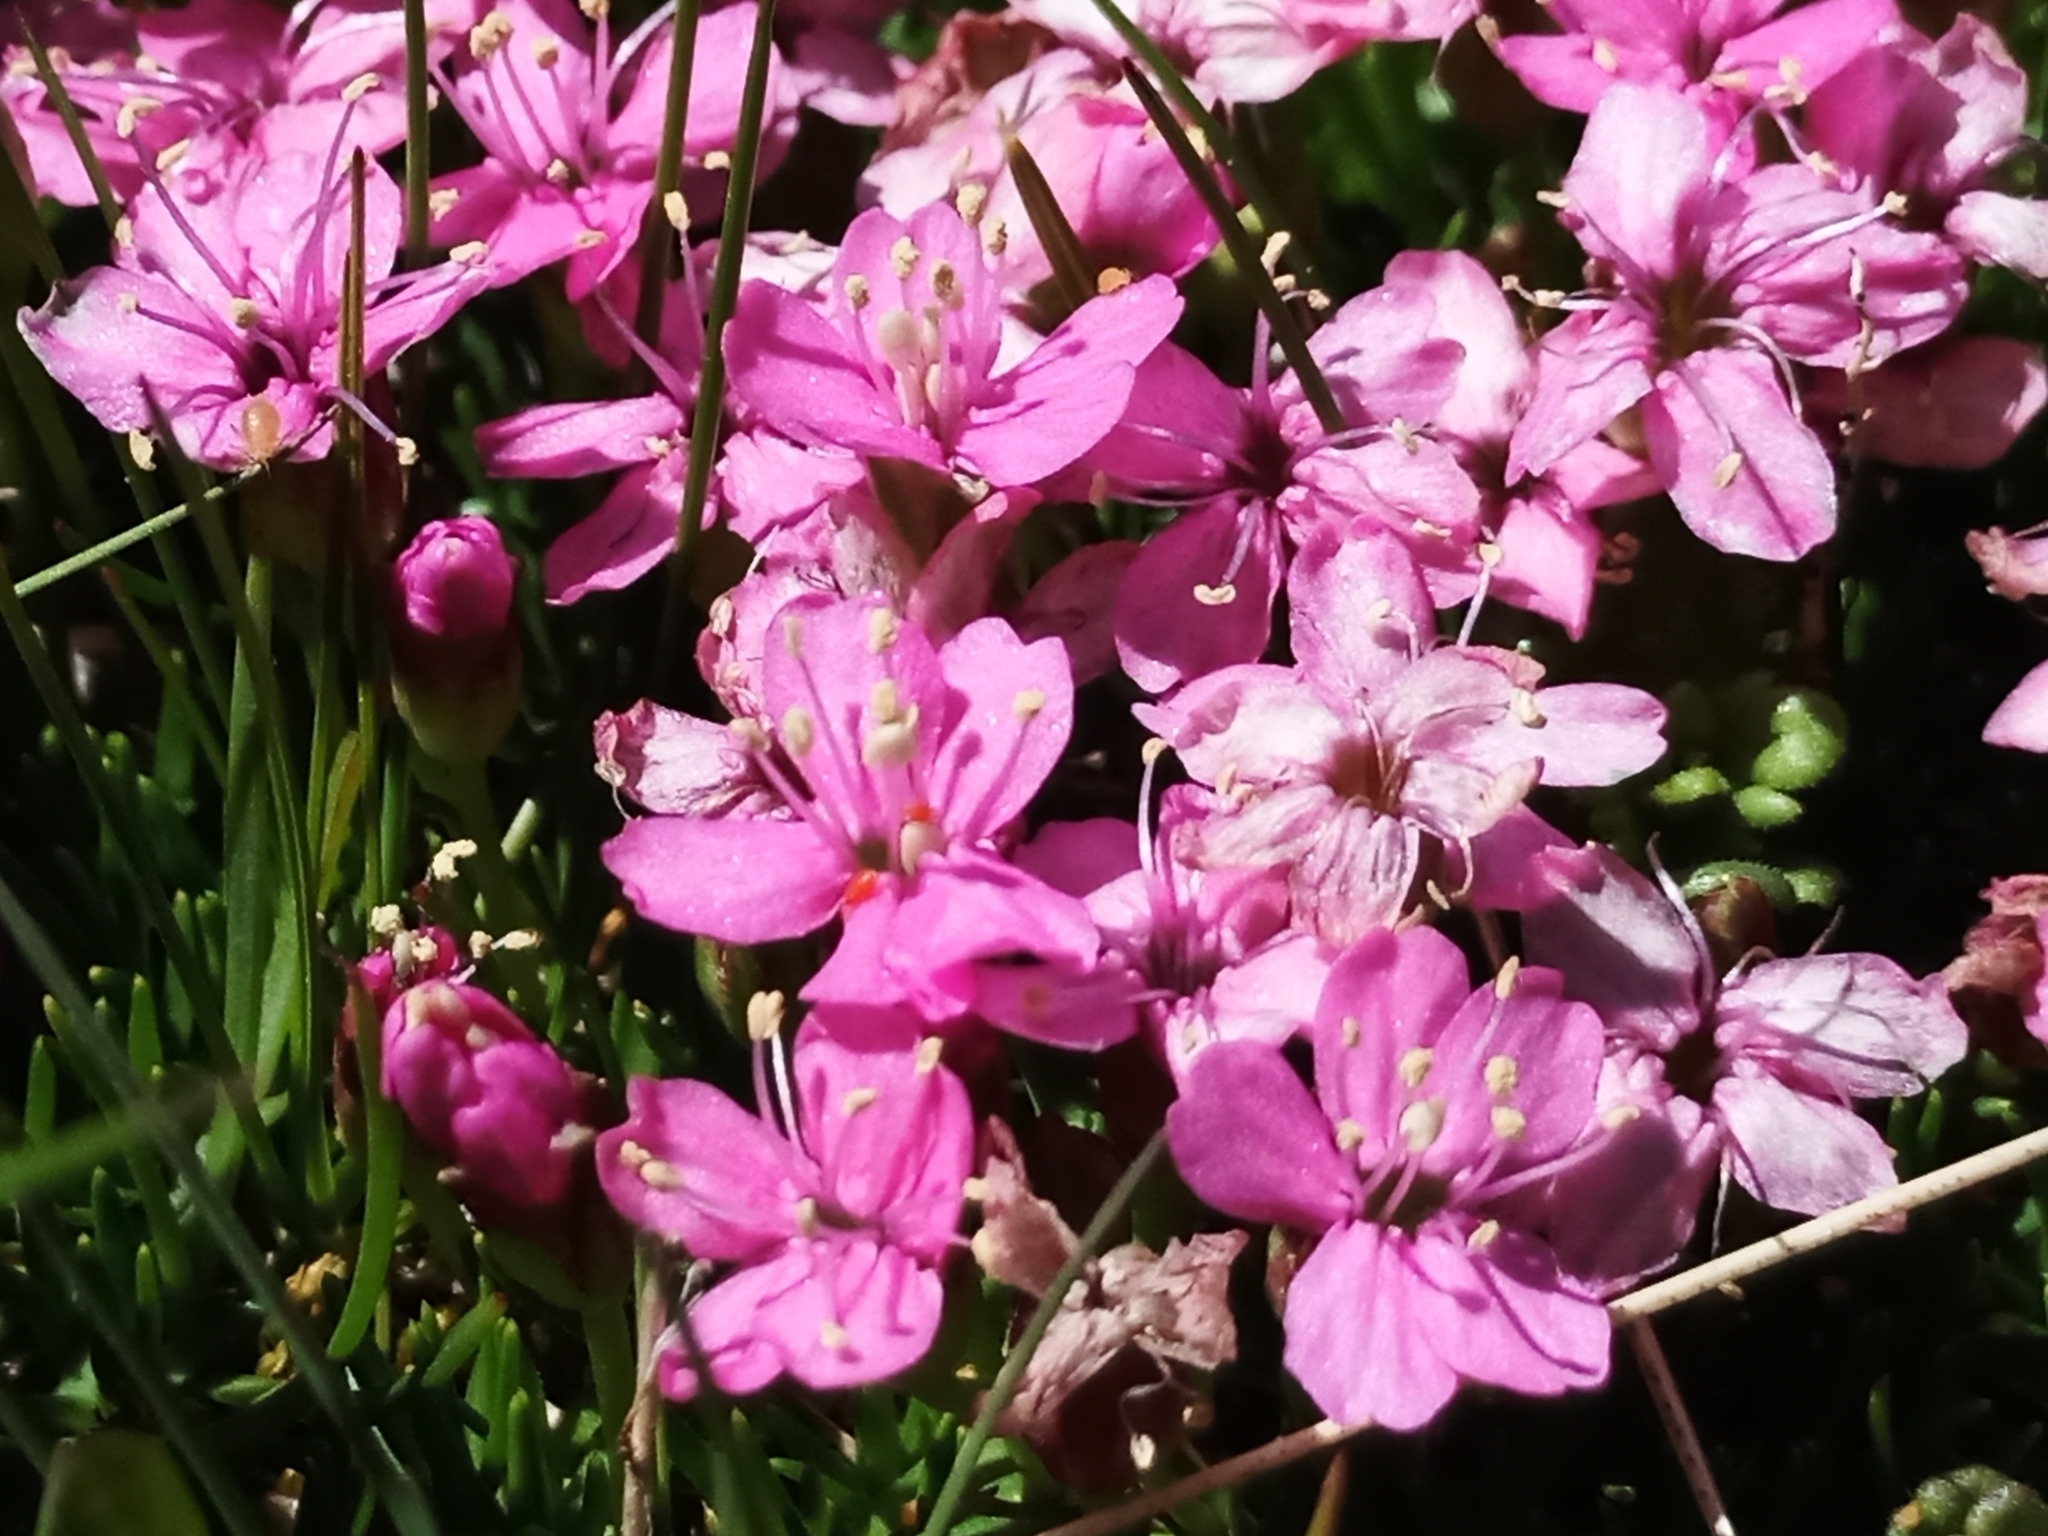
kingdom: Plantae
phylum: Tracheophyta
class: Magnoliopsida
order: Caryophyllales
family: Caryophyllaceae
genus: Silene
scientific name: Silene acaulis
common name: Moss campion
